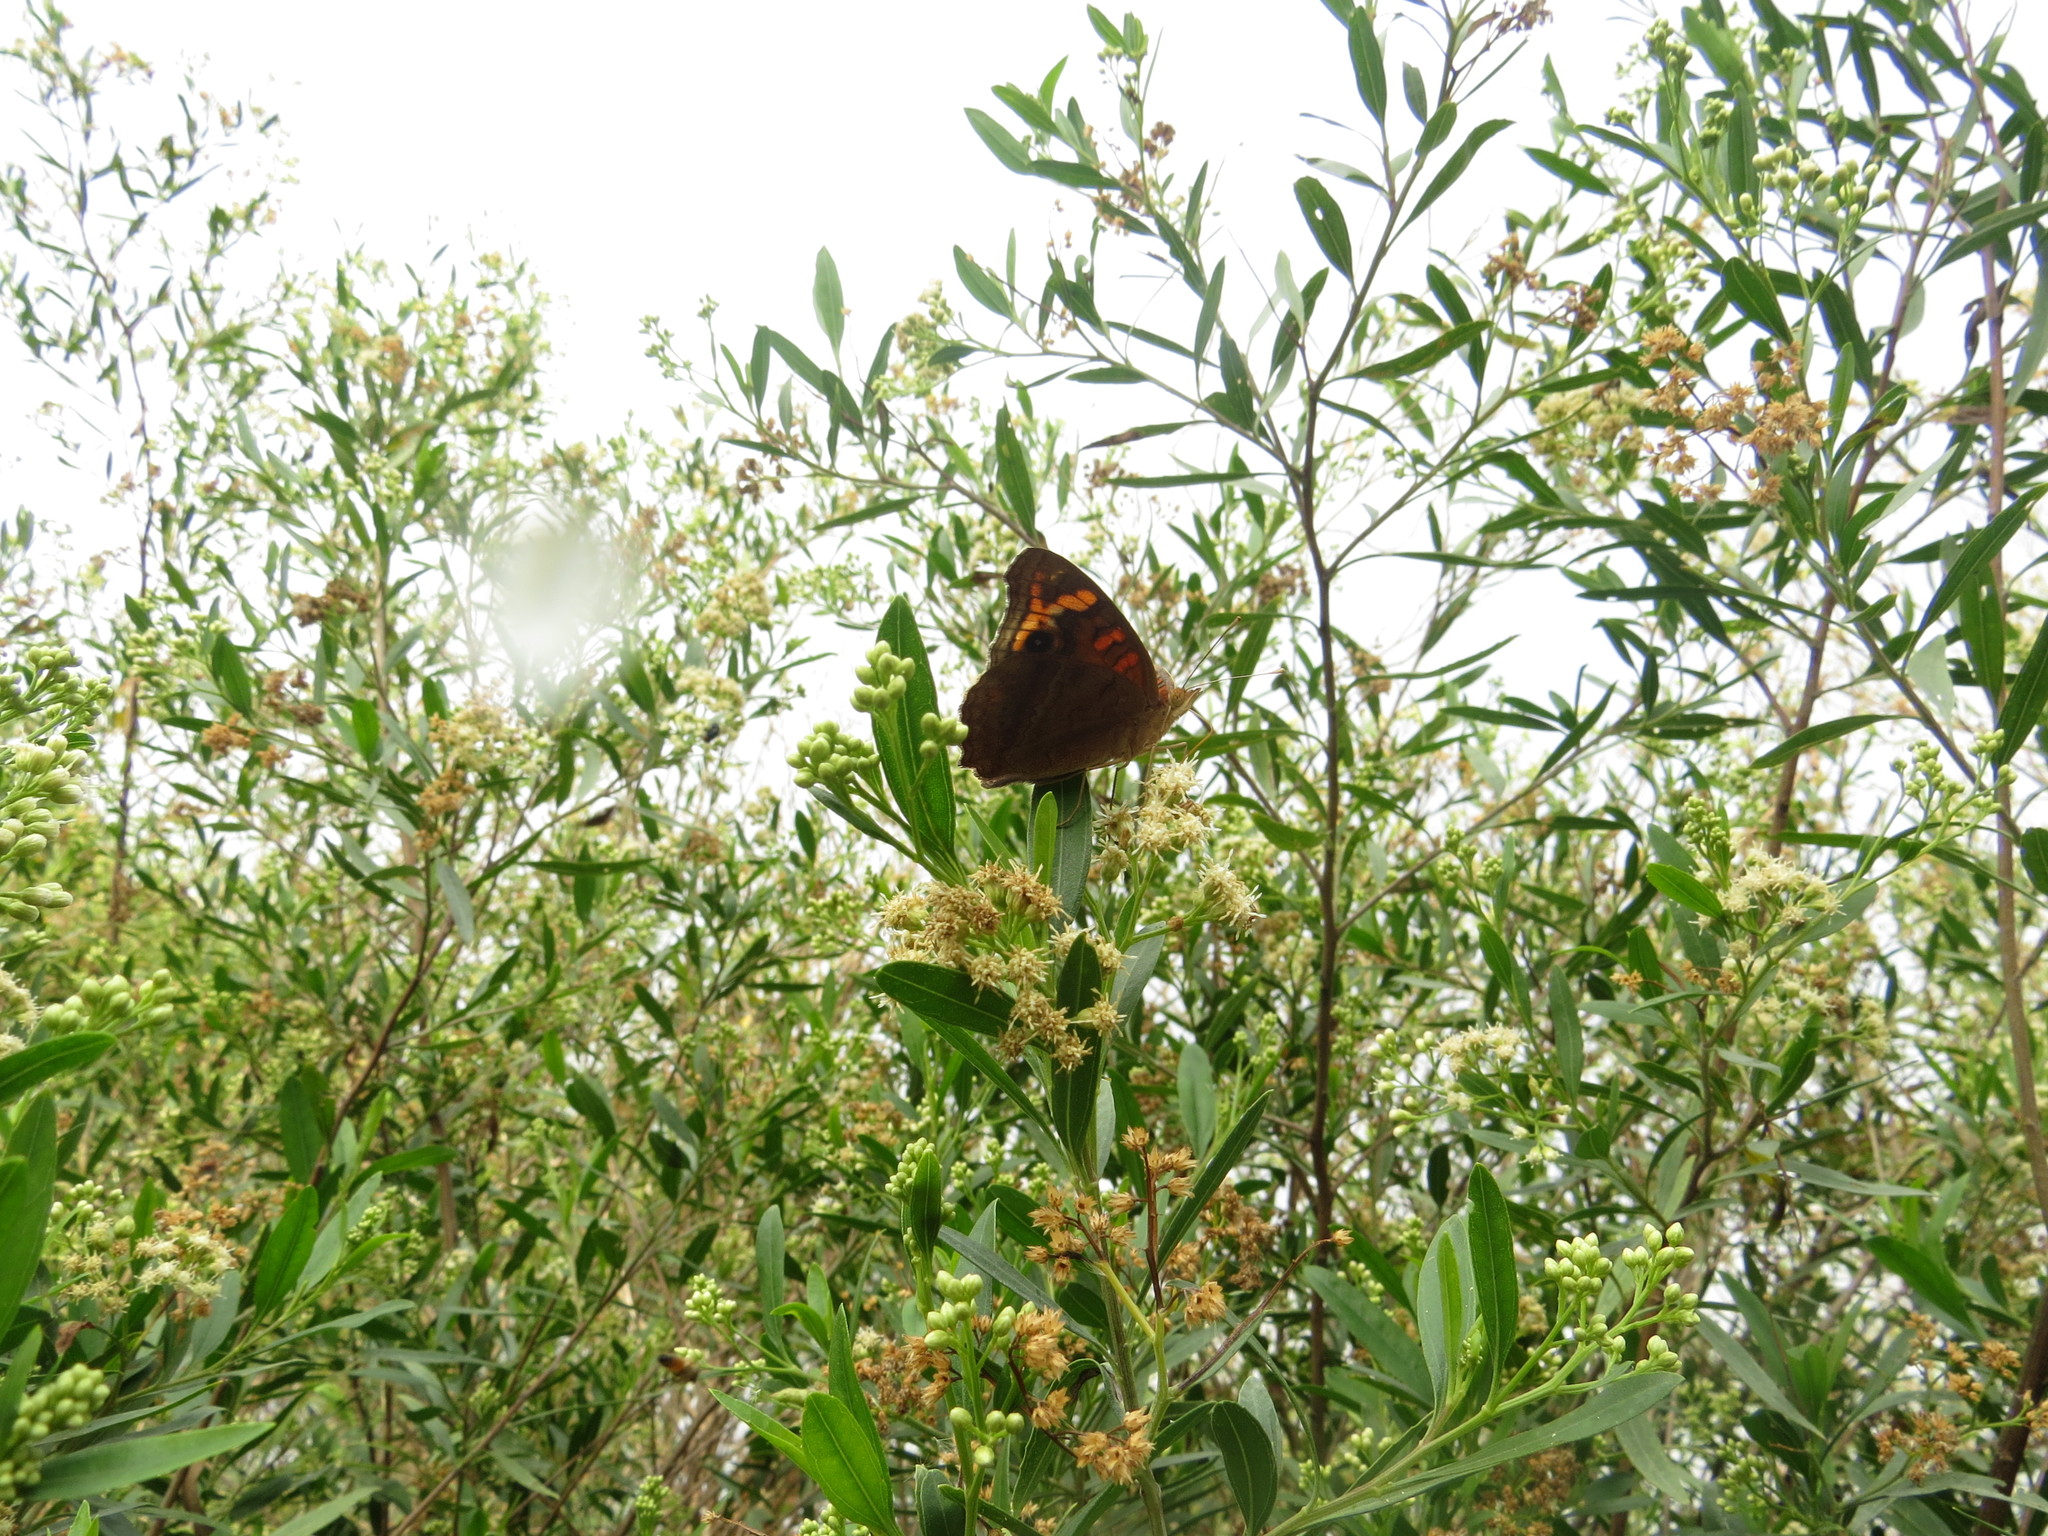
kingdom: Animalia
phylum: Arthropoda
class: Insecta
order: Lepidoptera
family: Nymphalidae
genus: Junonia
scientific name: Junonia lavinia
